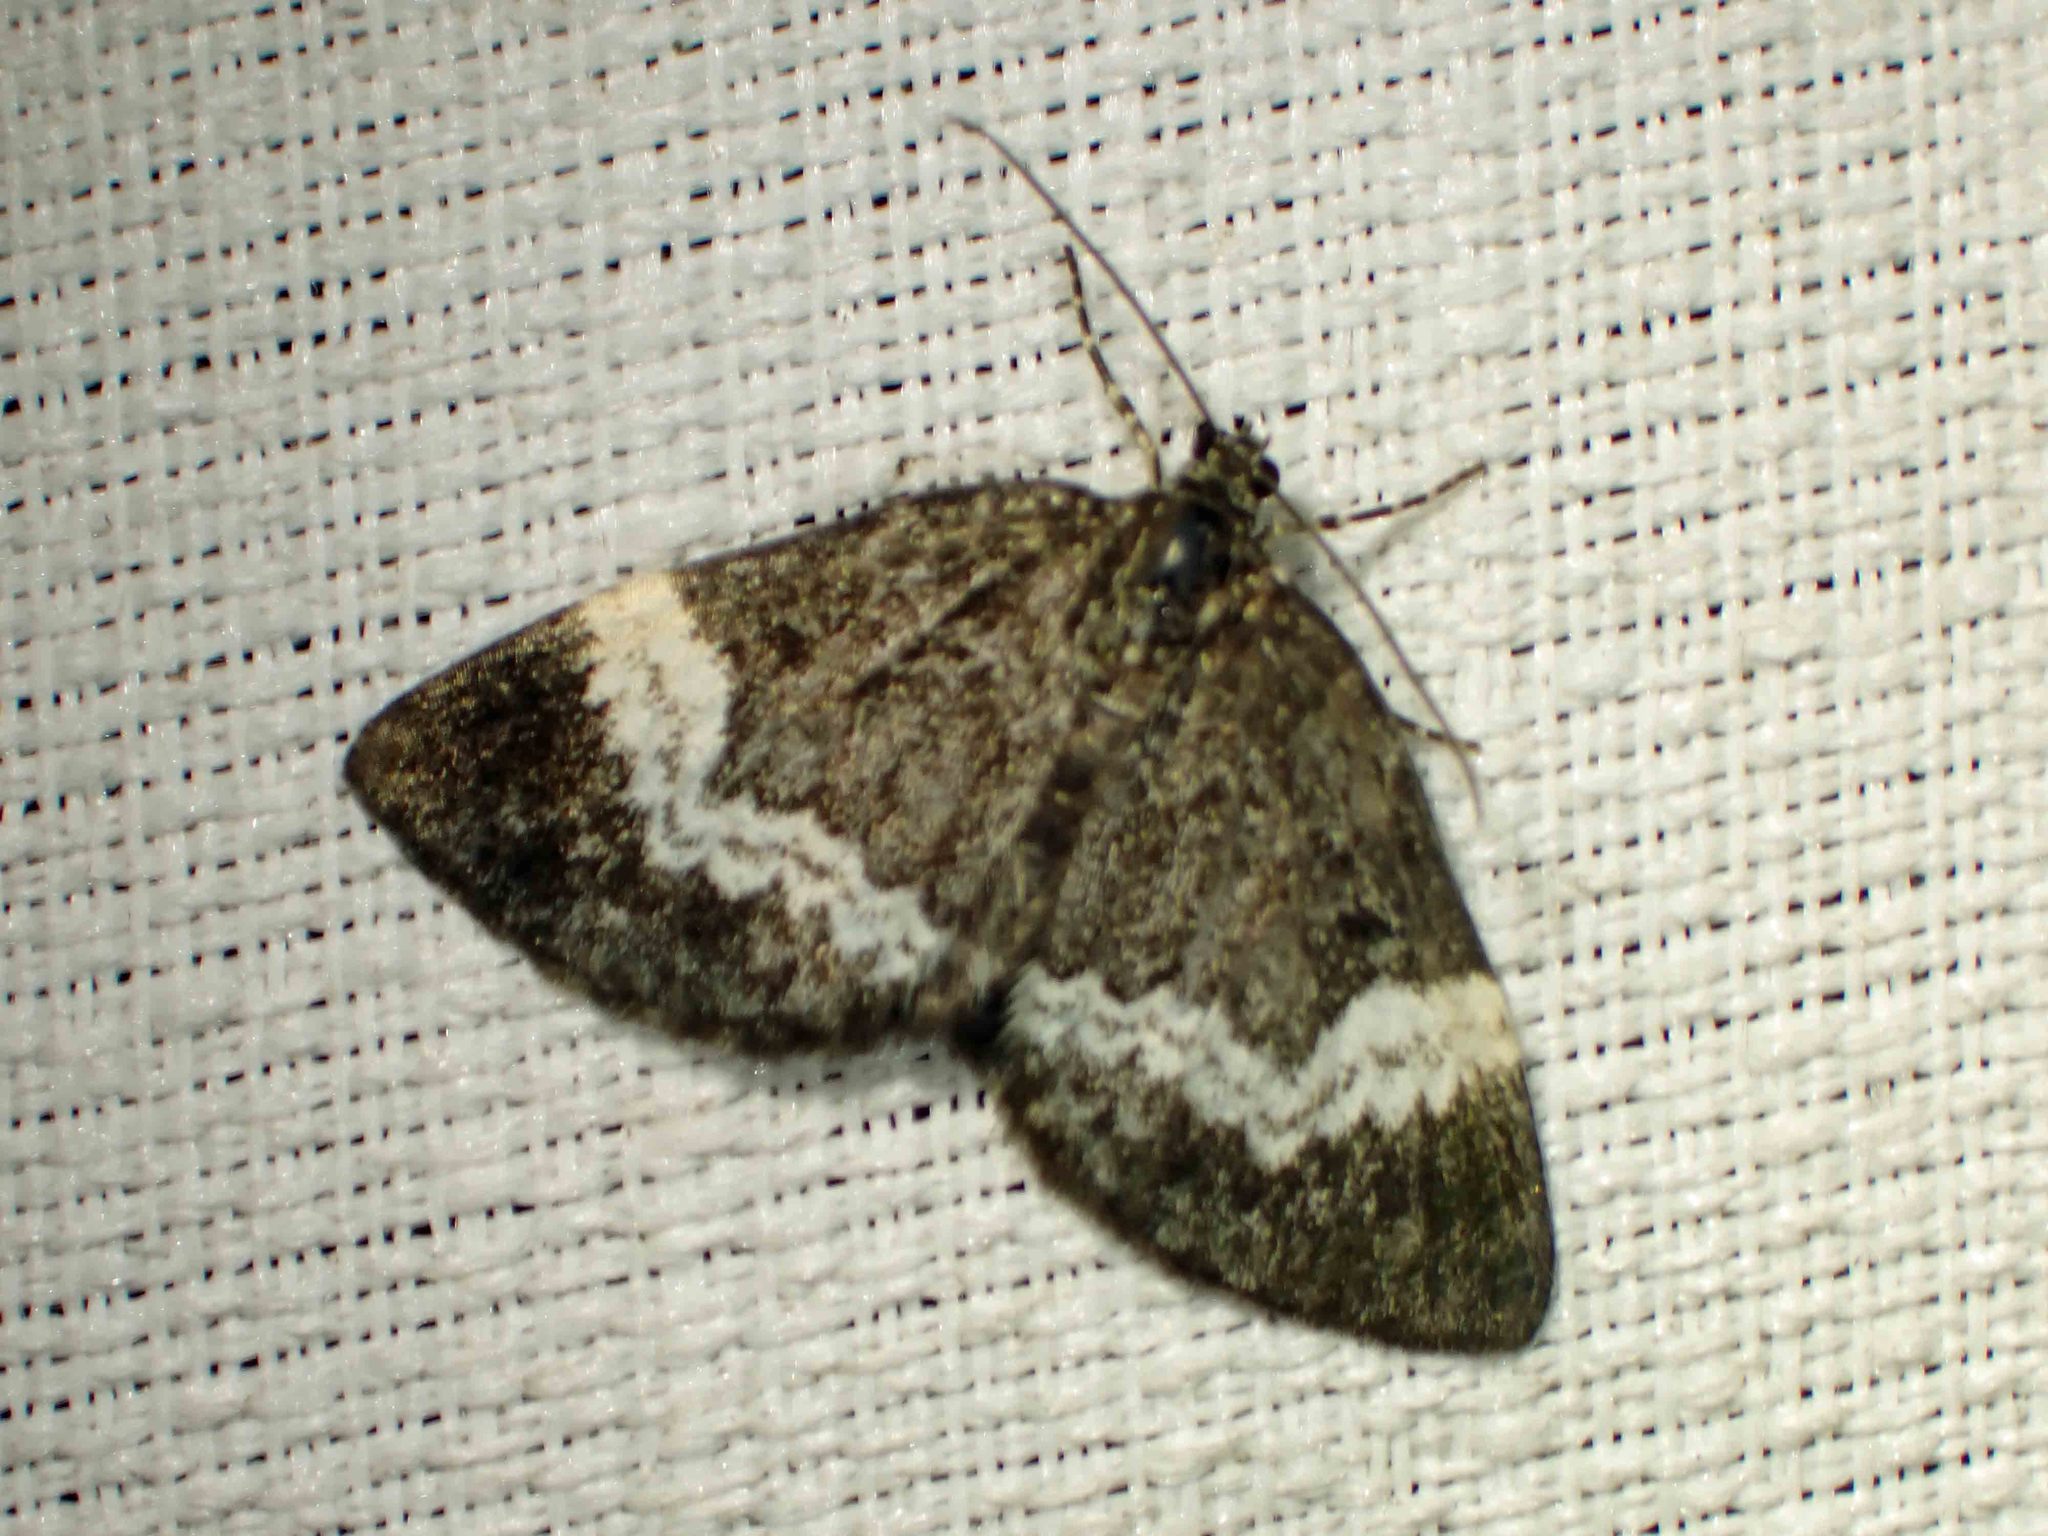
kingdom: Animalia
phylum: Arthropoda
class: Insecta
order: Lepidoptera
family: Geometridae
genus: Spargania
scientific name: Spargania luctuata
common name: White-banded carpet
